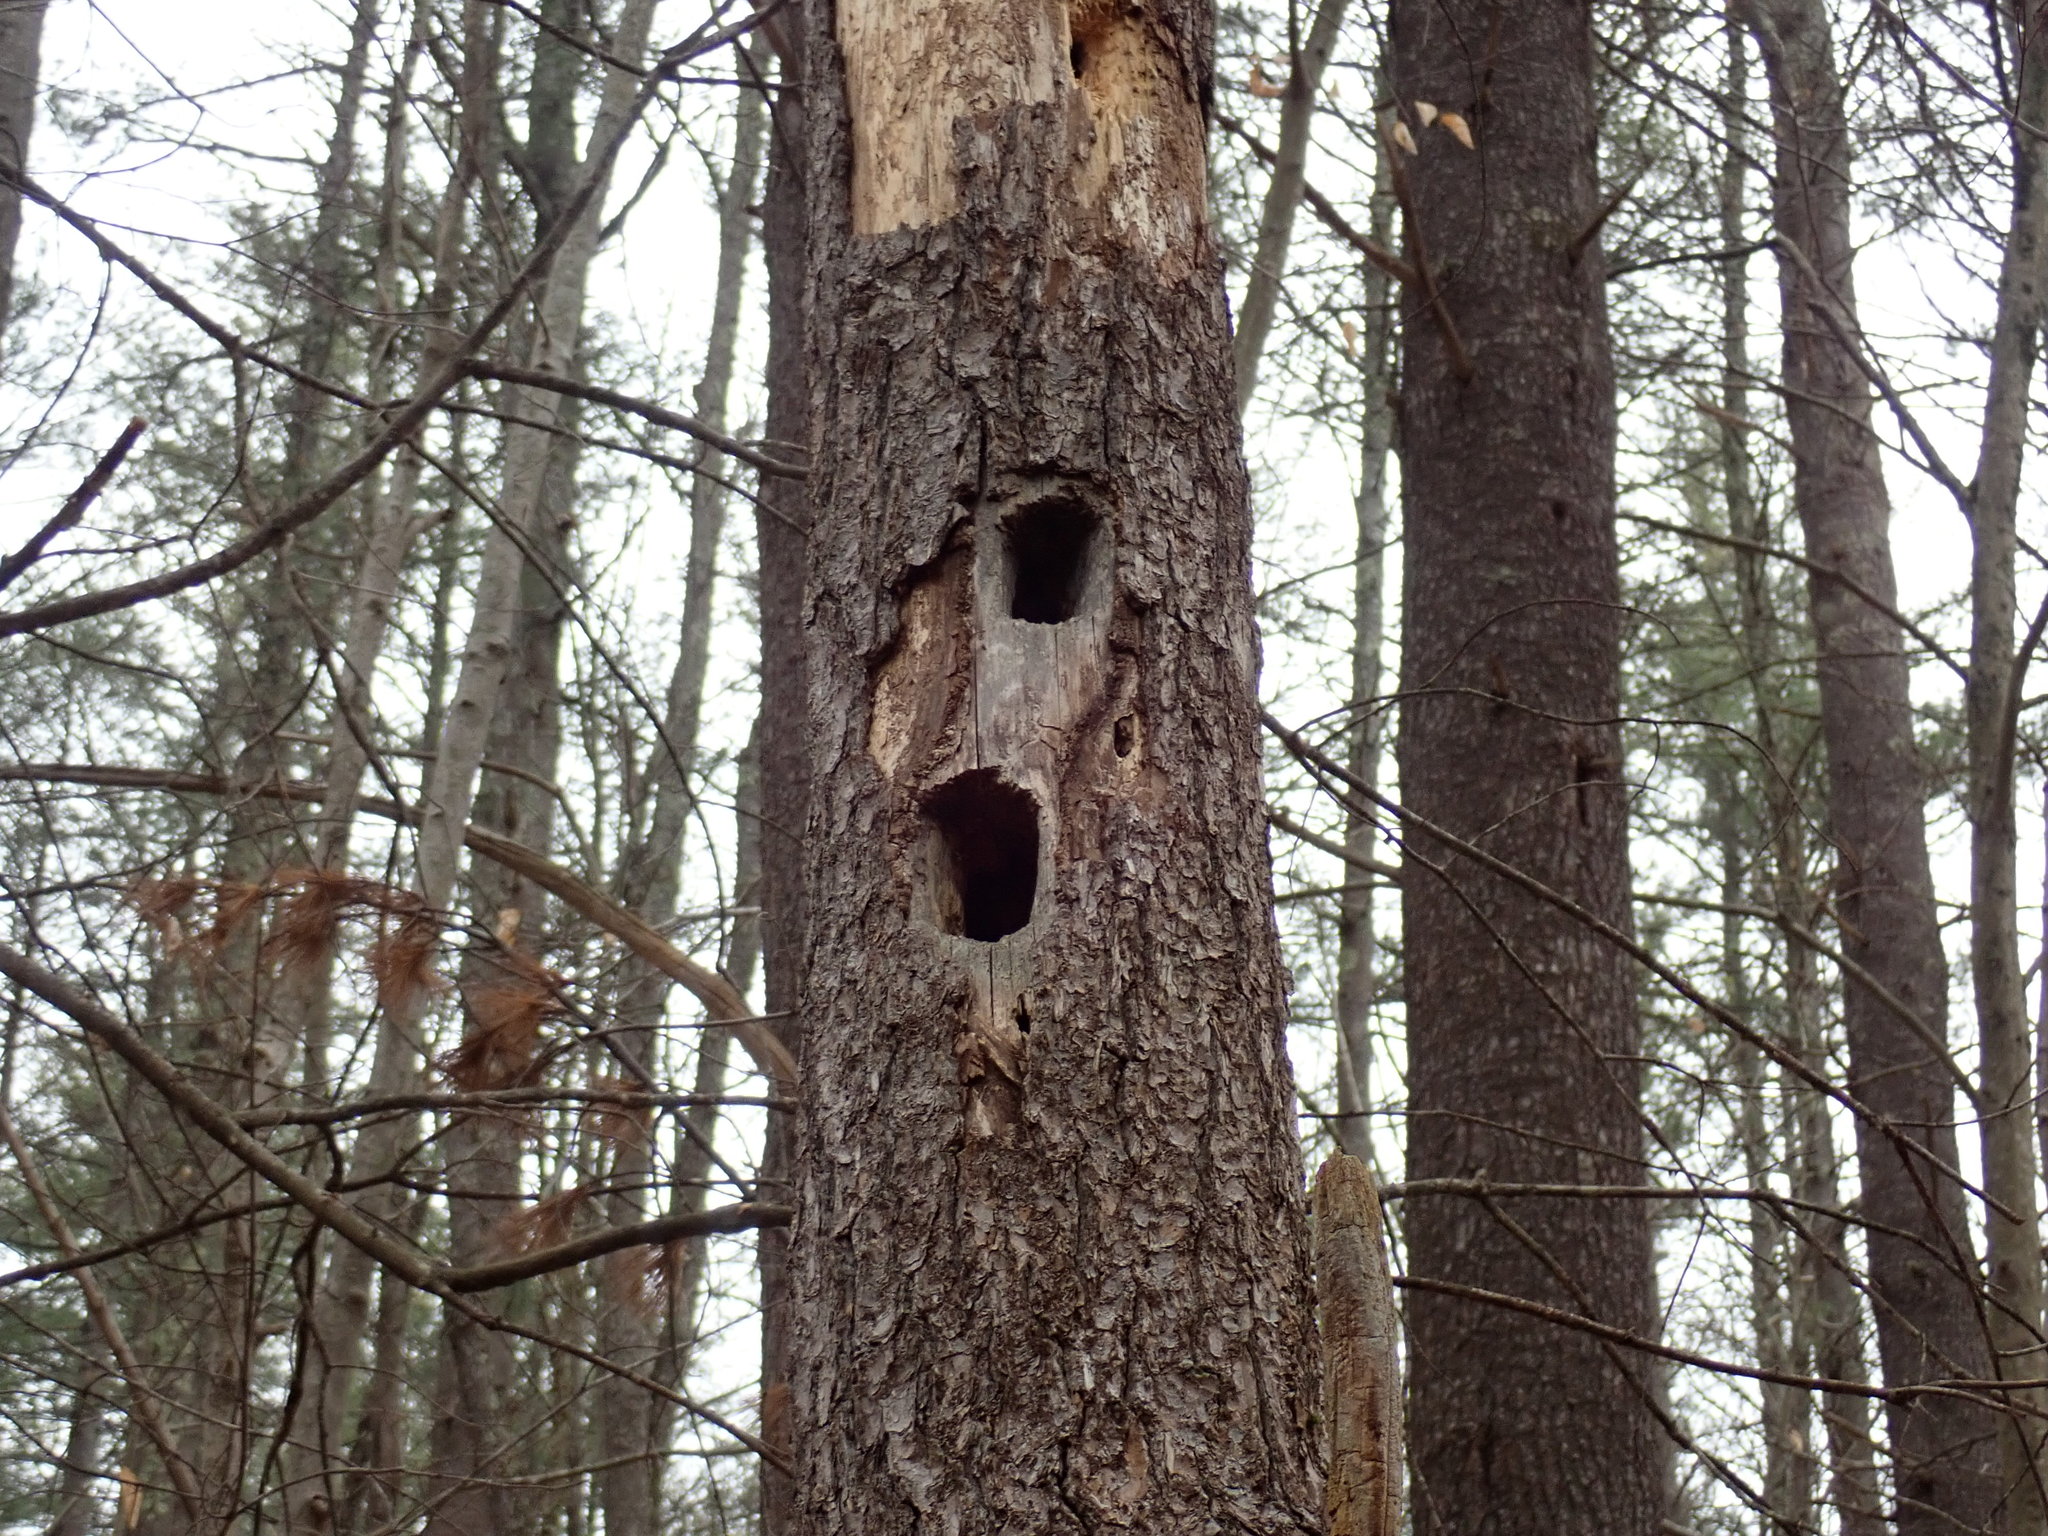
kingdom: Animalia
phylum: Chordata
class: Aves
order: Piciformes
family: Picidae
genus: Dryocopus
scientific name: Dryocopus pileatus
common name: Pileated woodpecker
